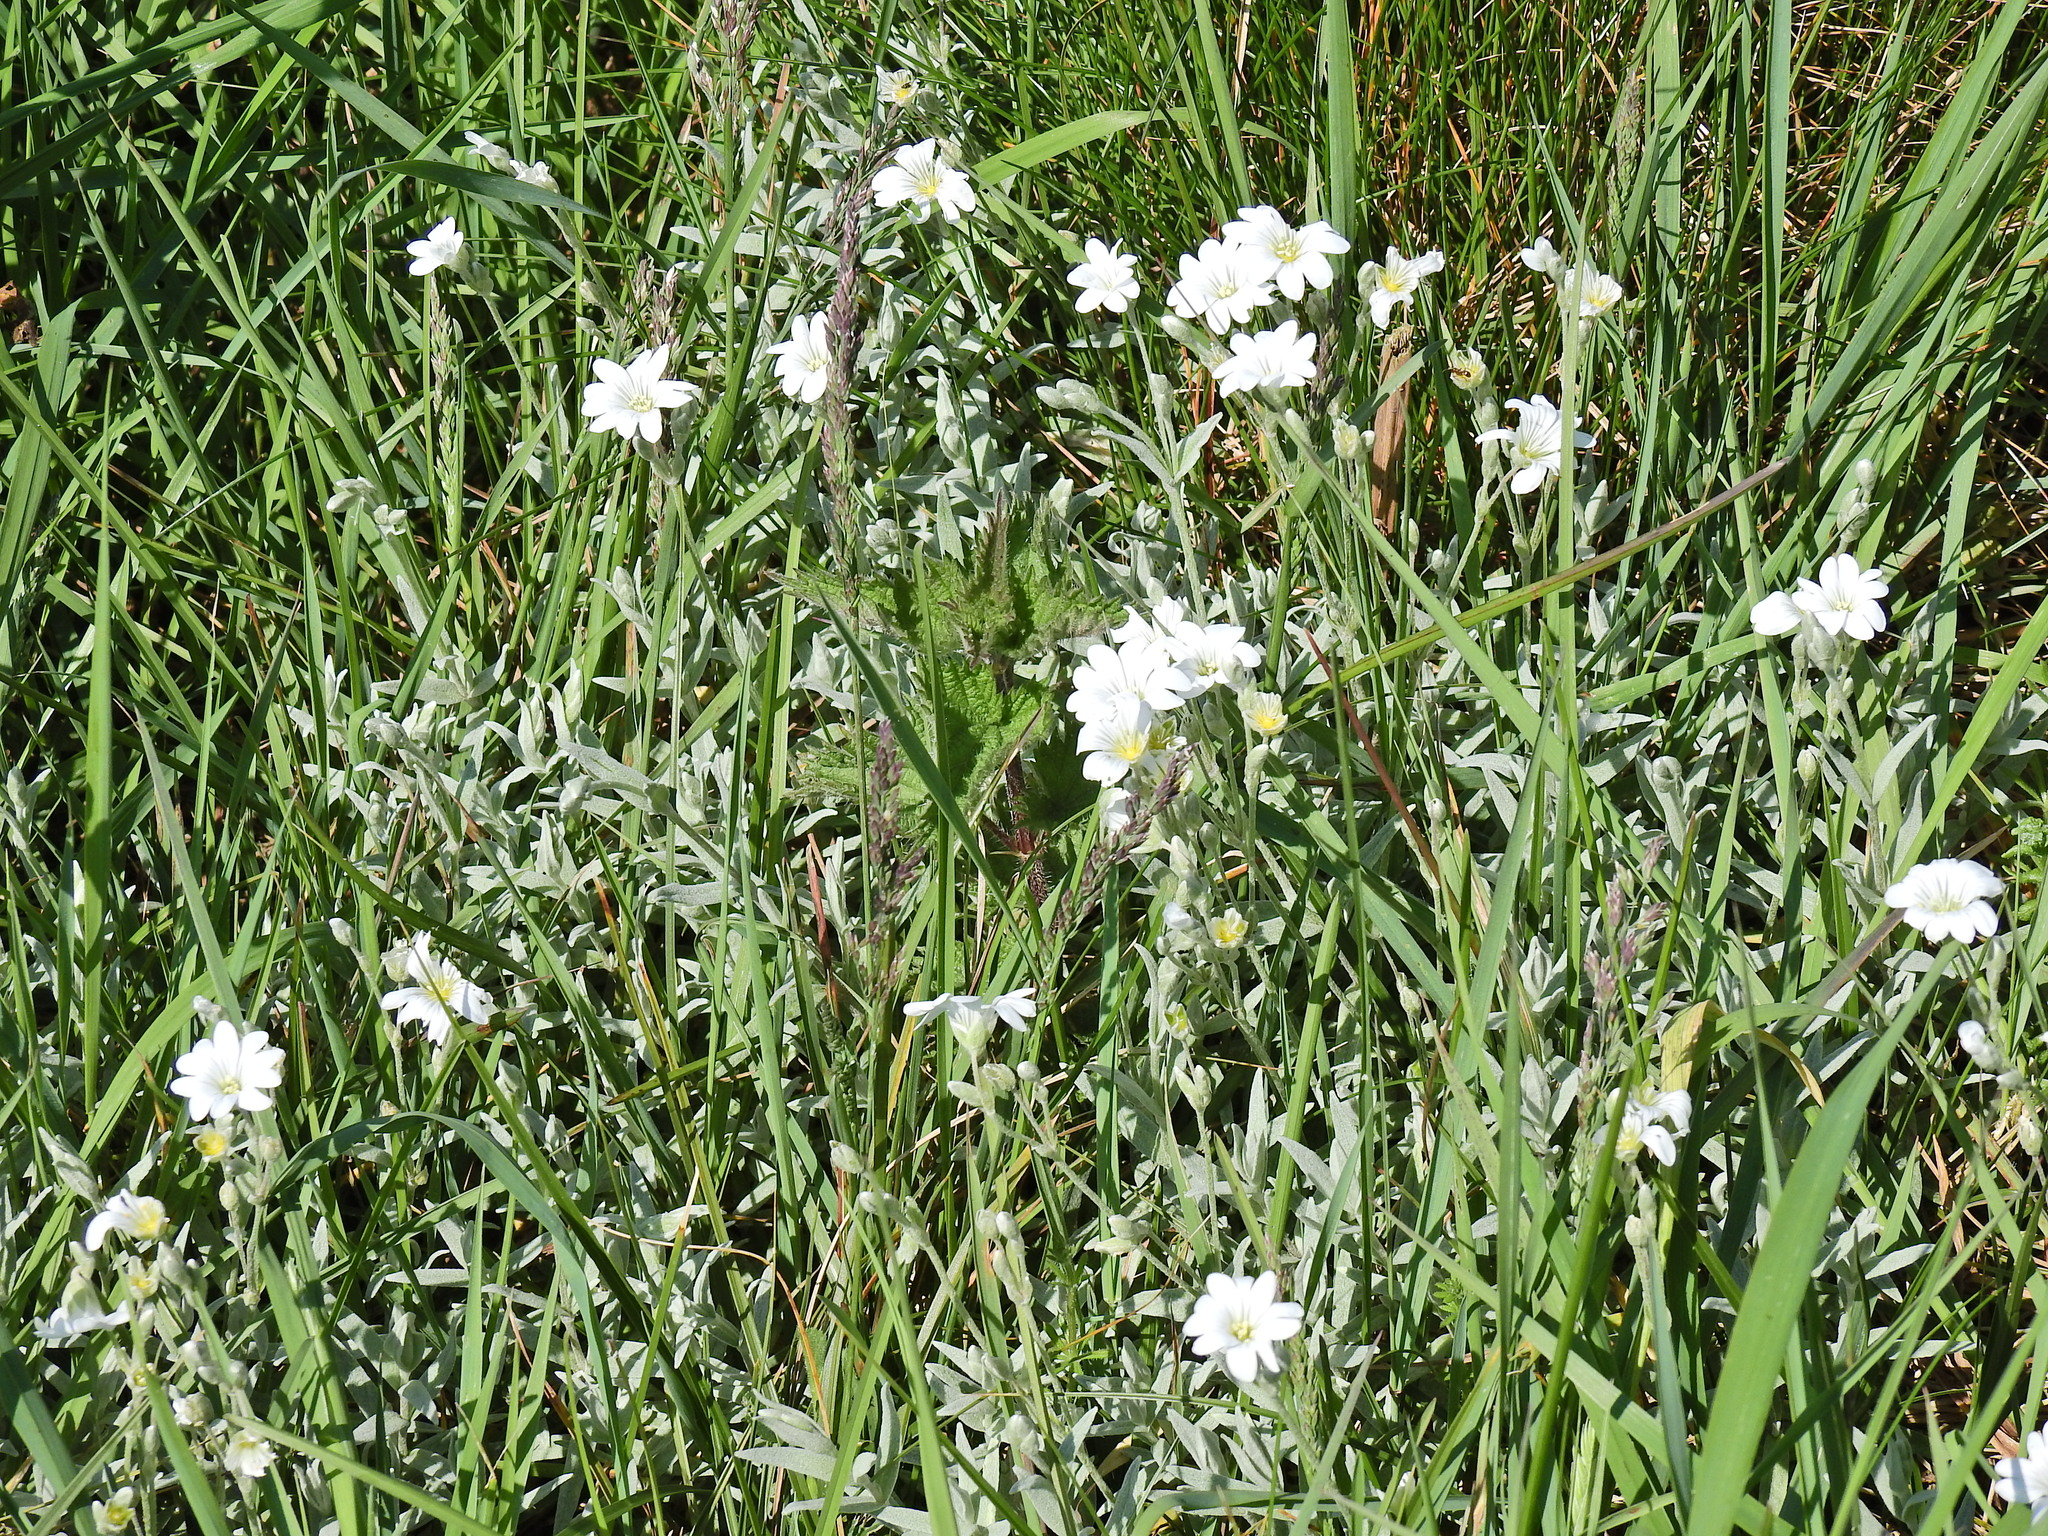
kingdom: Plantae
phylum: Tracheophyta
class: Magnoliopsida
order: Caryophyllales
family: Caryophyllaceae
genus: Cerastium
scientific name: Cerastium tomentosum
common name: Snow-in-summer
